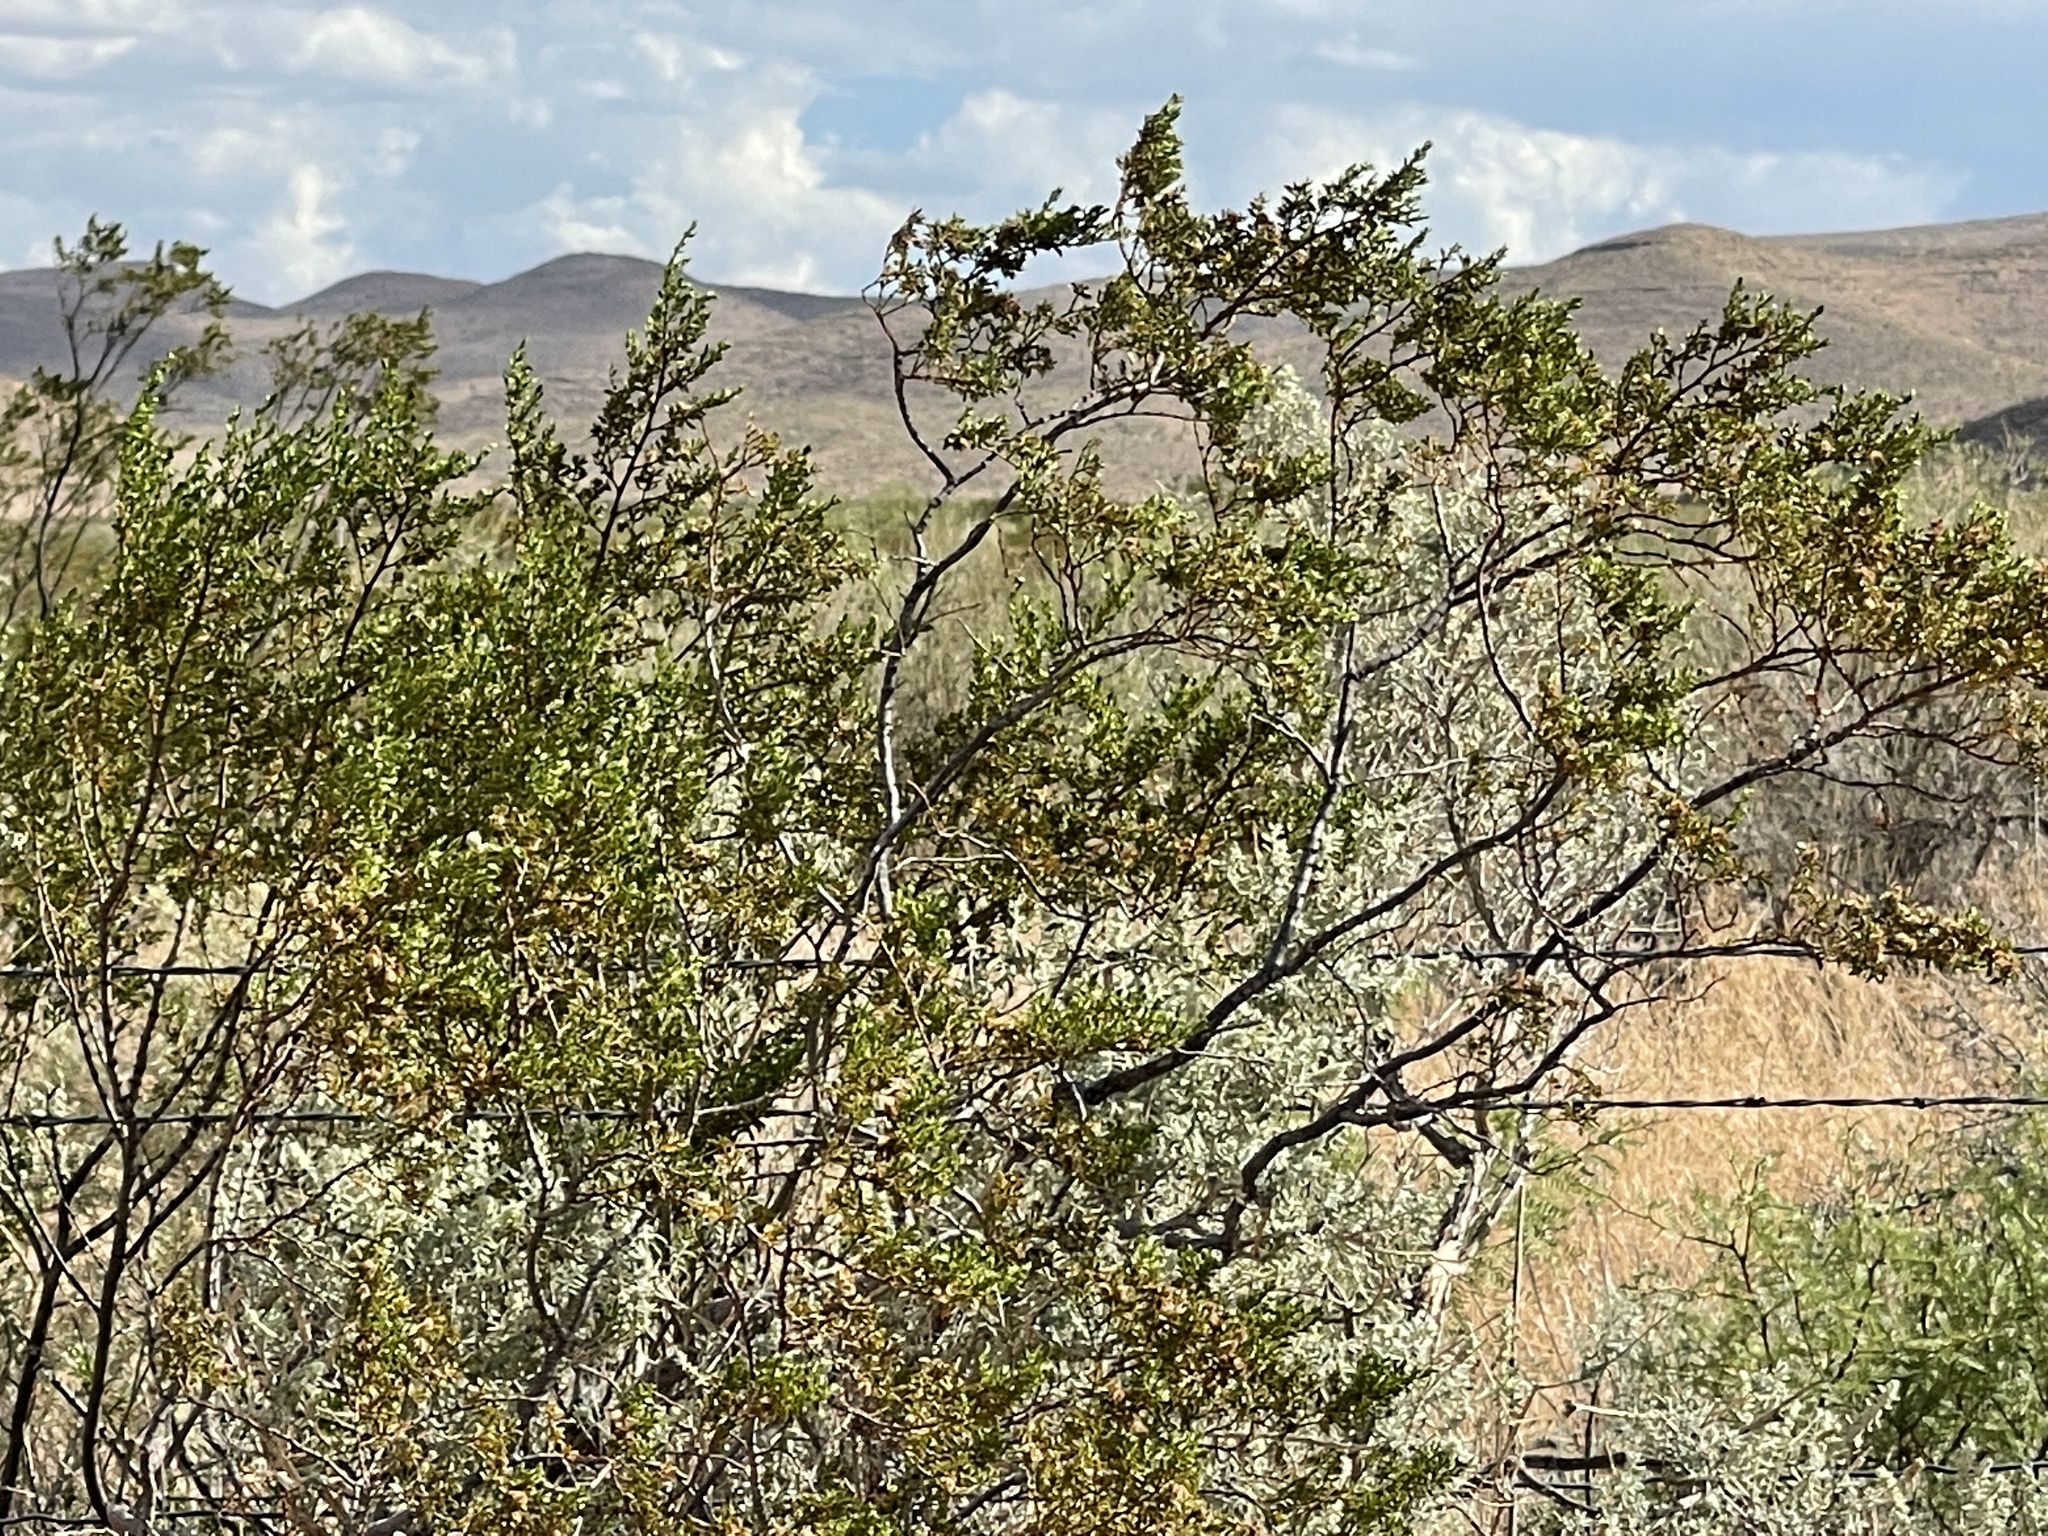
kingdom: Plantae
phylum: Tracheophyta
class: Magnoliopsida
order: Zygophyllales
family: Zygophyllaceae
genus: Larrea
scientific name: Larrea tridentata
